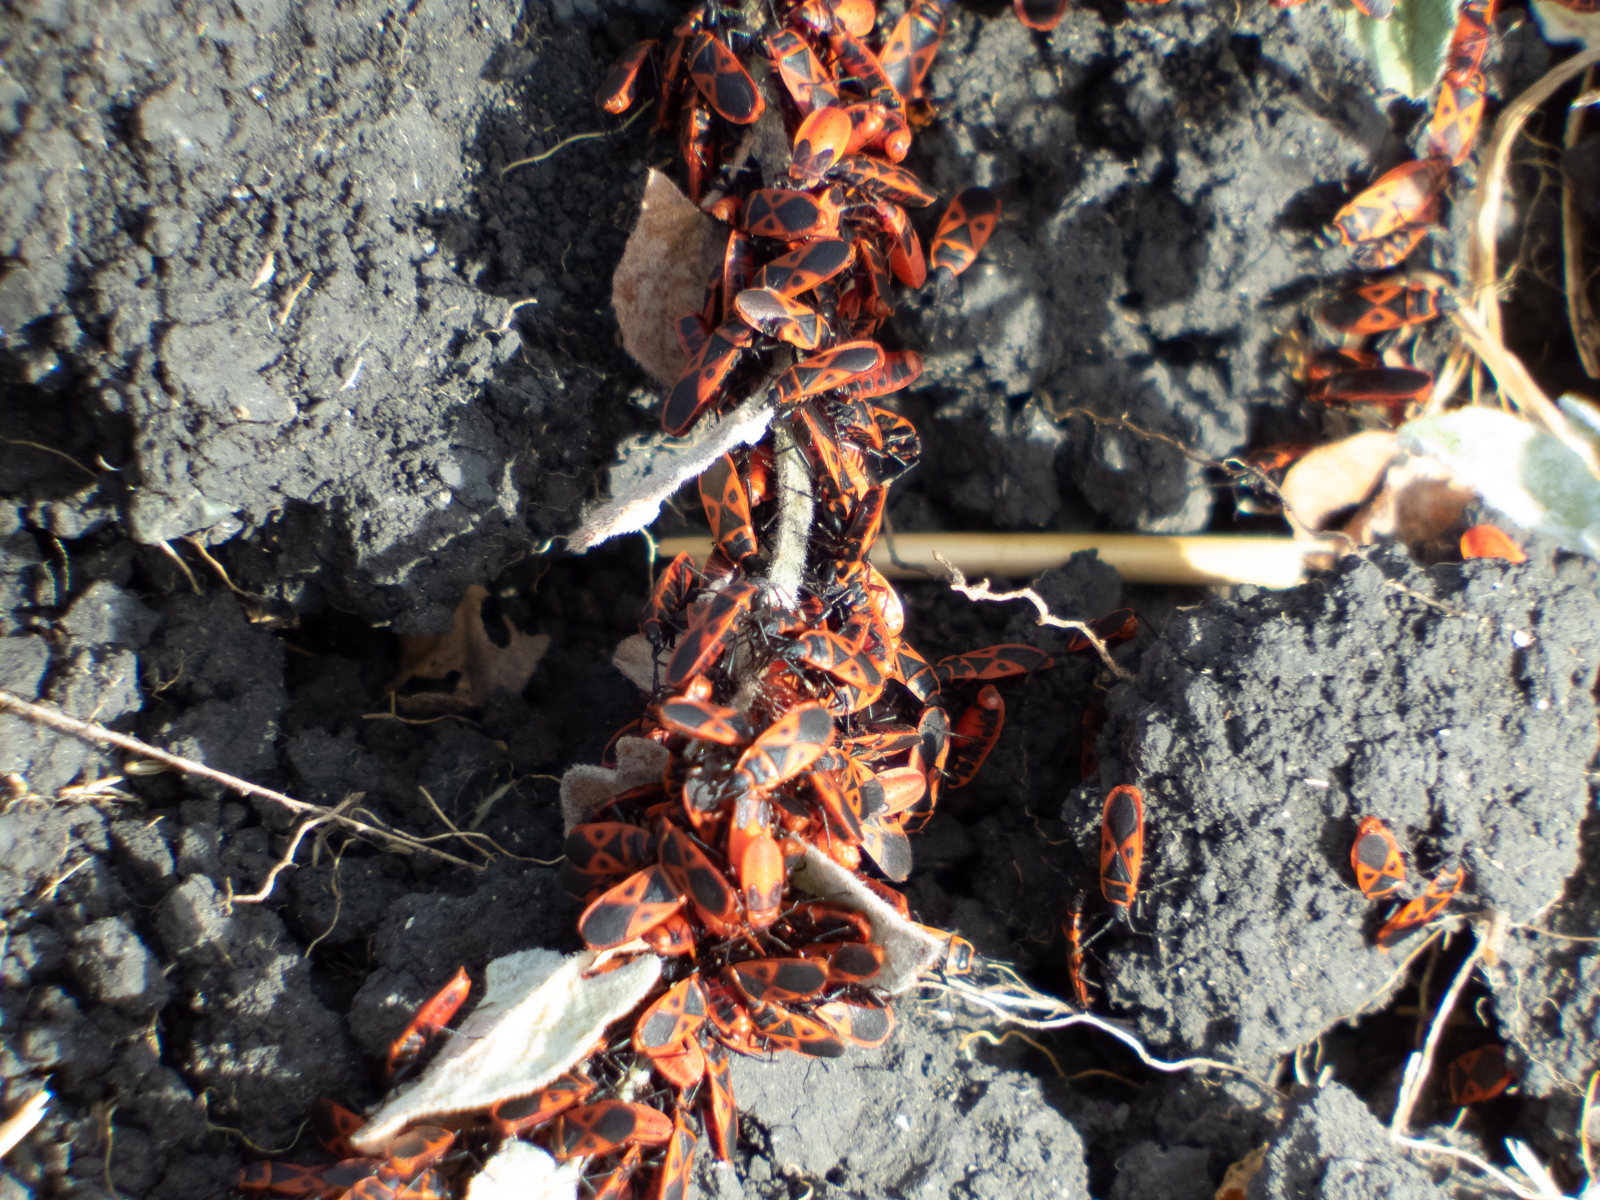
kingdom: Animalia
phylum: Arthropoda
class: Insecta
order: Hemiptera
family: Pyrrhocoridae
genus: Scantius
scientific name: Scantius aegyptius
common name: Red bug
